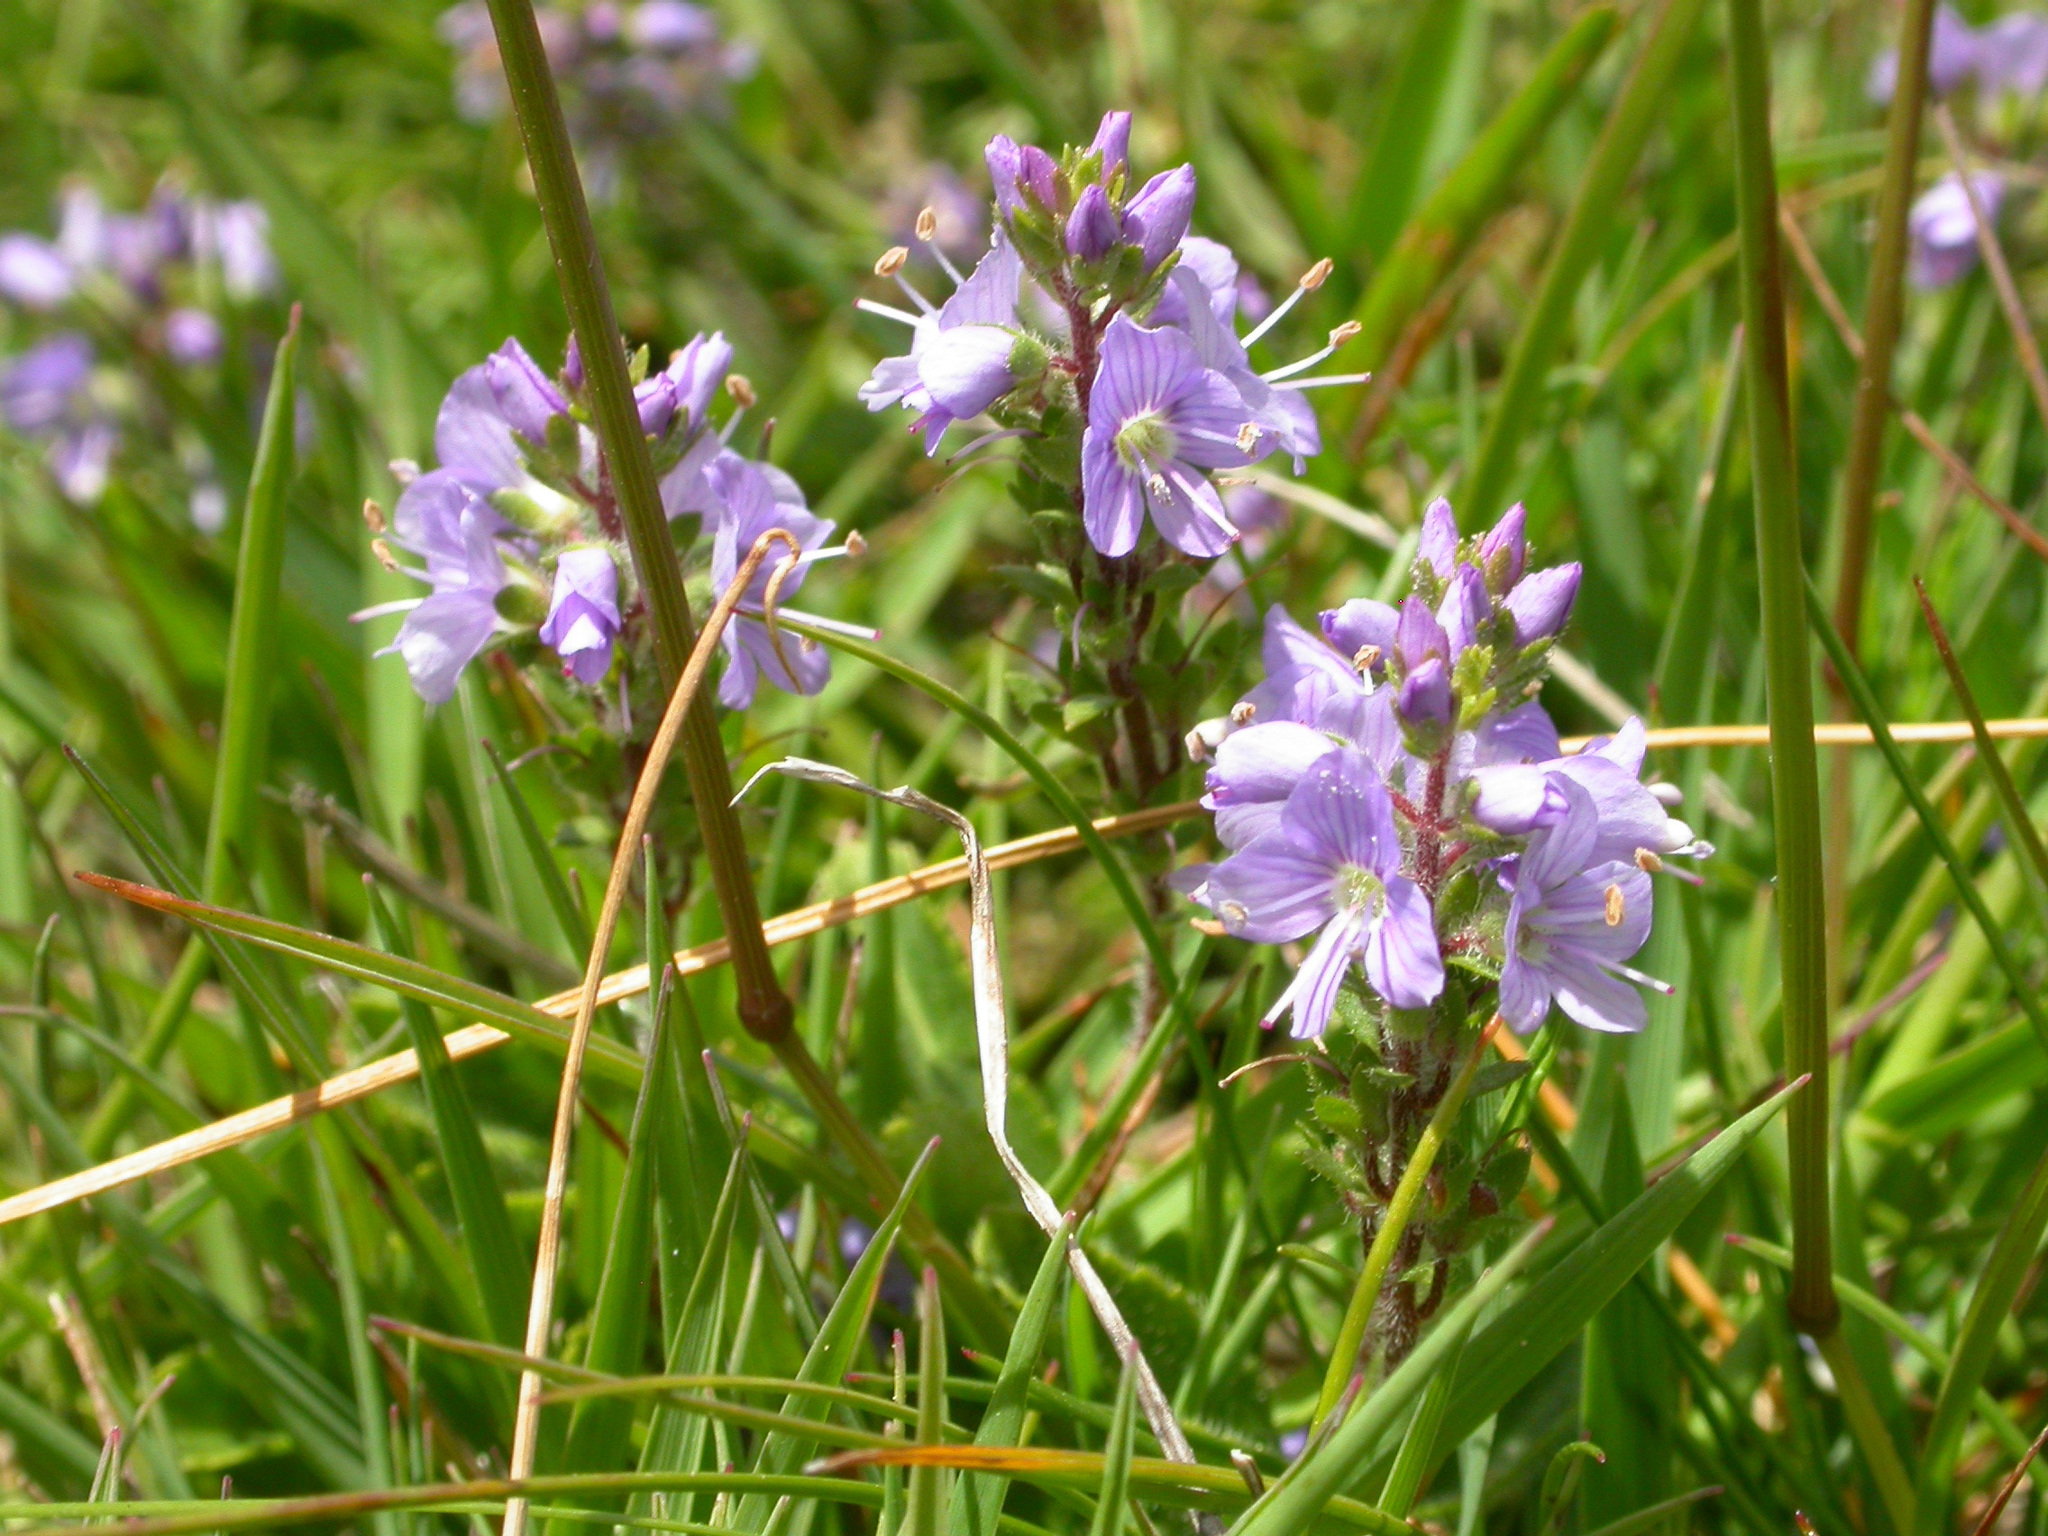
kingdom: Plantae
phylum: Tracheophyta
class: Magnoliopsida
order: Lamiales
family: Plantaginaceae
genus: Veronica
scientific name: Veronica officinalis
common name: Common speedwell
